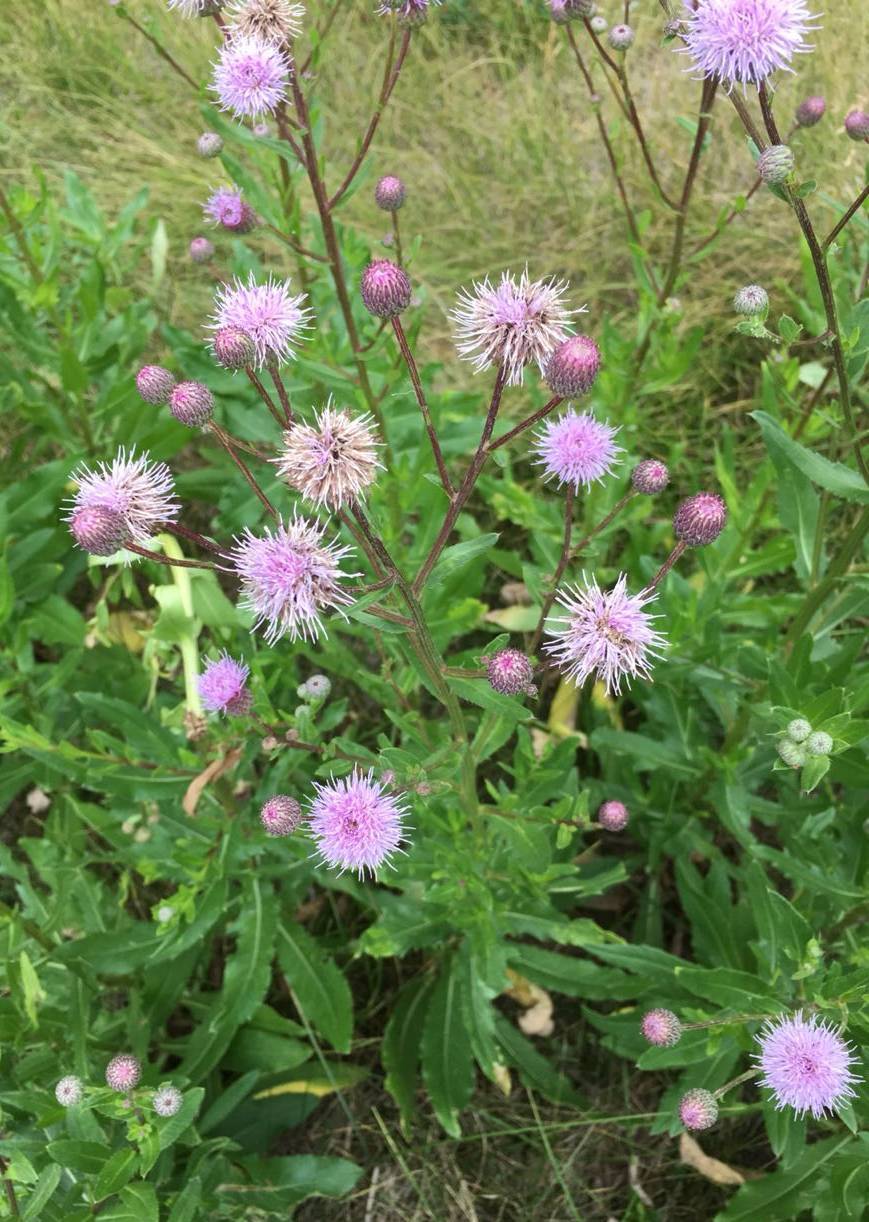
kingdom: Plantae
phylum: Tracheophyta
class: Magnoliopsida
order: Asterales
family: Asteraceae
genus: Cirsium
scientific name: Cirsium arvense
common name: Creeping thistle
